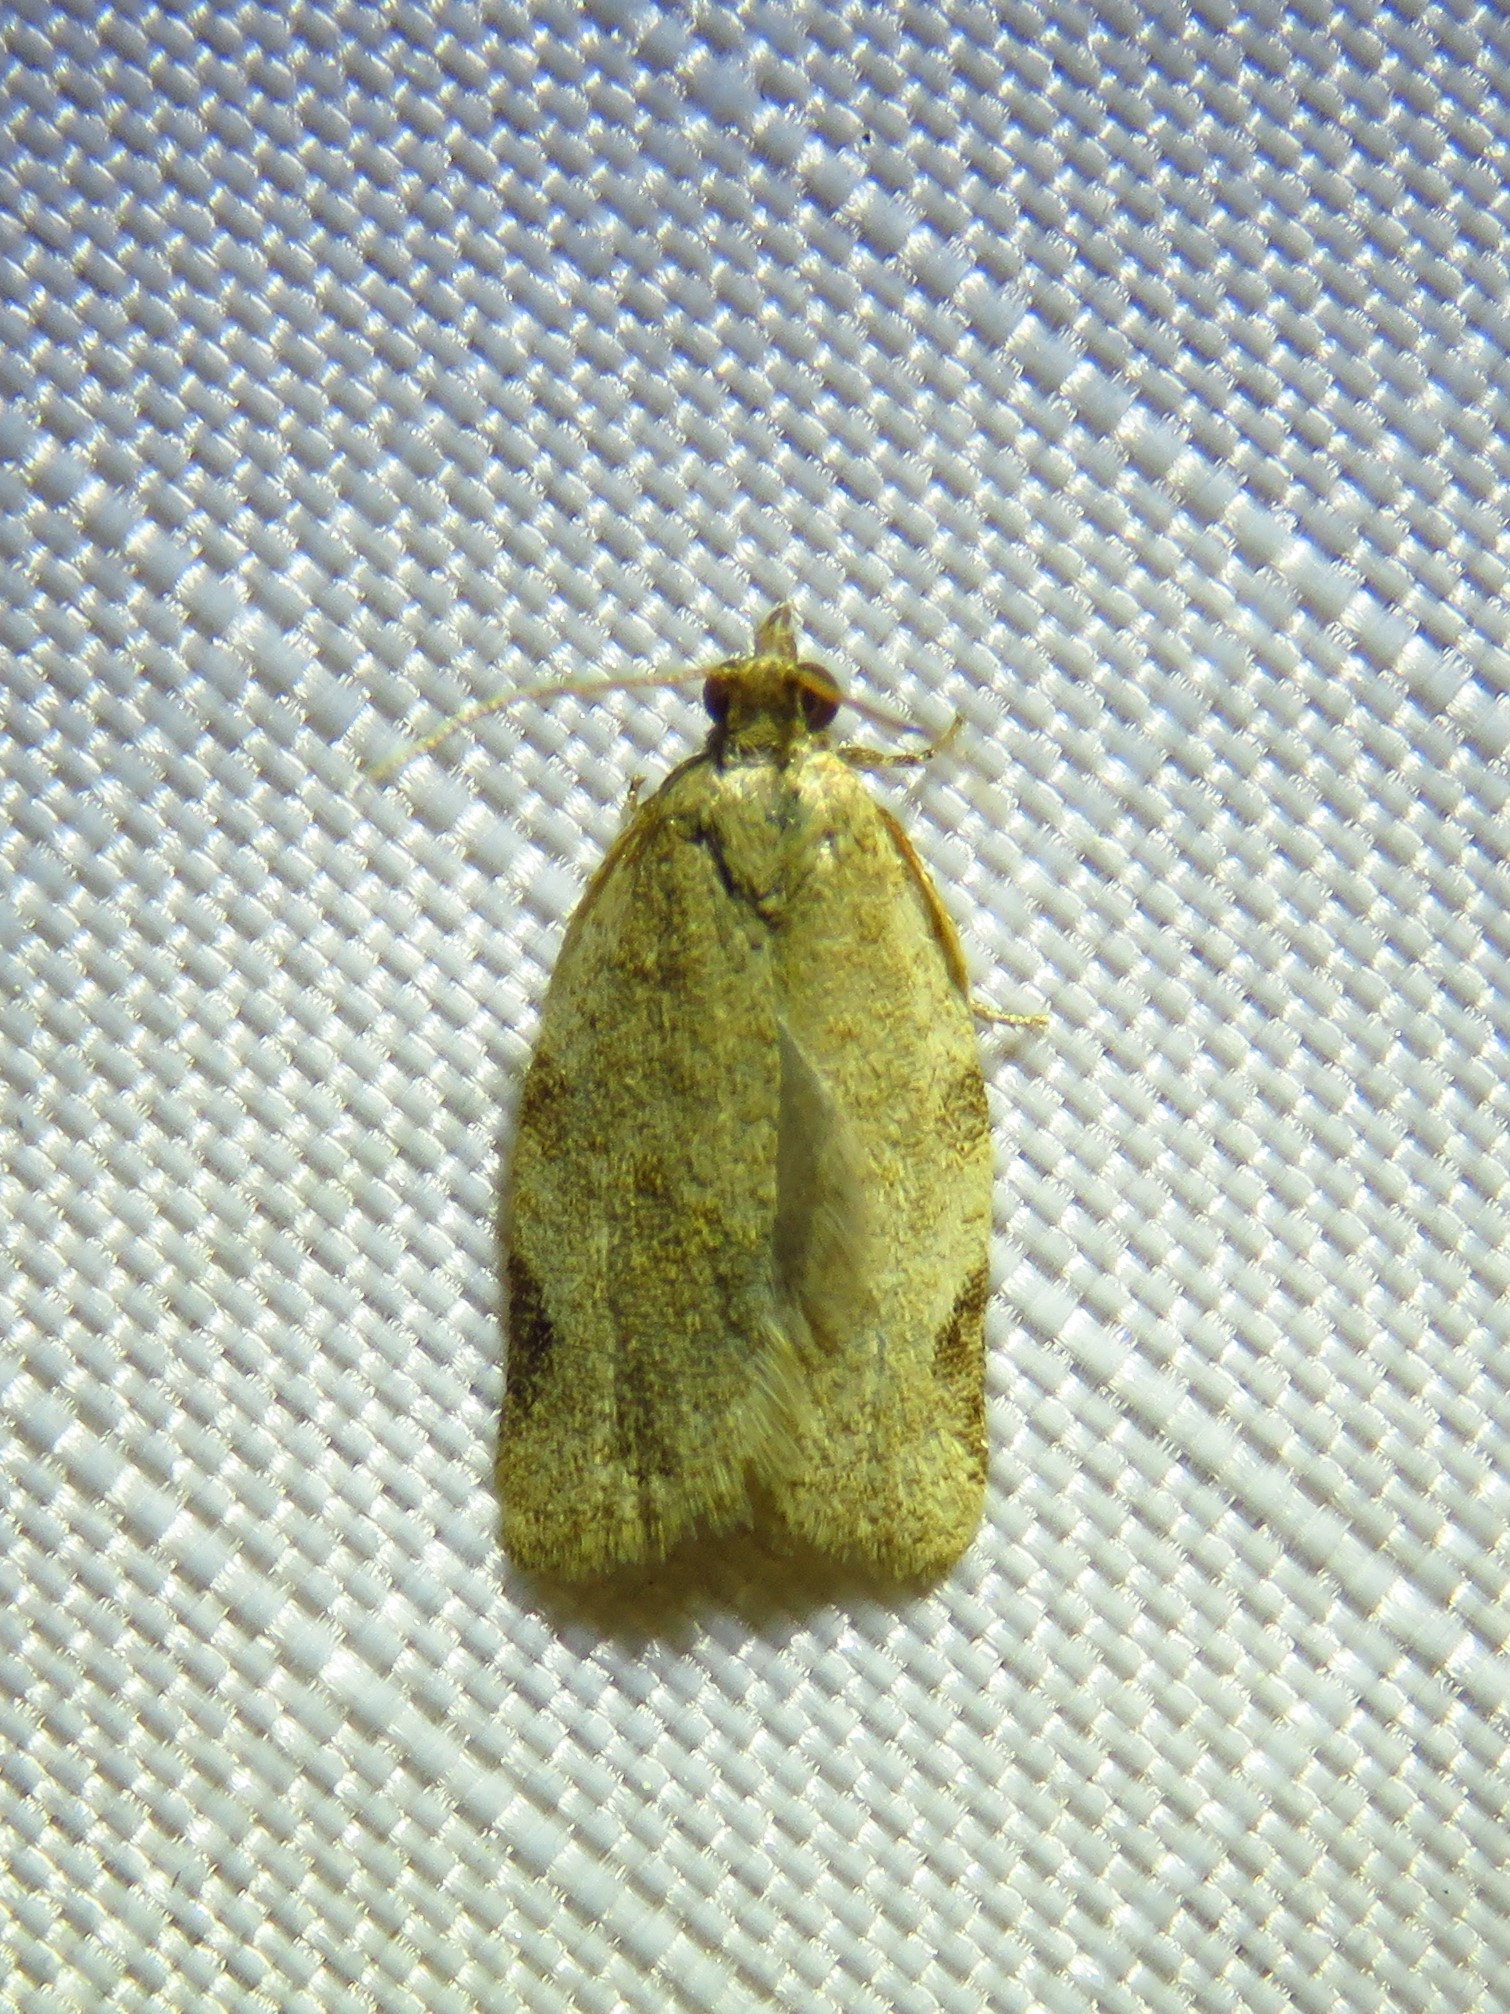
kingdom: Animalia
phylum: Arthropoda
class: Insecta
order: Lepidoptera
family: Tortricidae
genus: Clepsis
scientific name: Clepsis virescana
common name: Greenish apple moth
